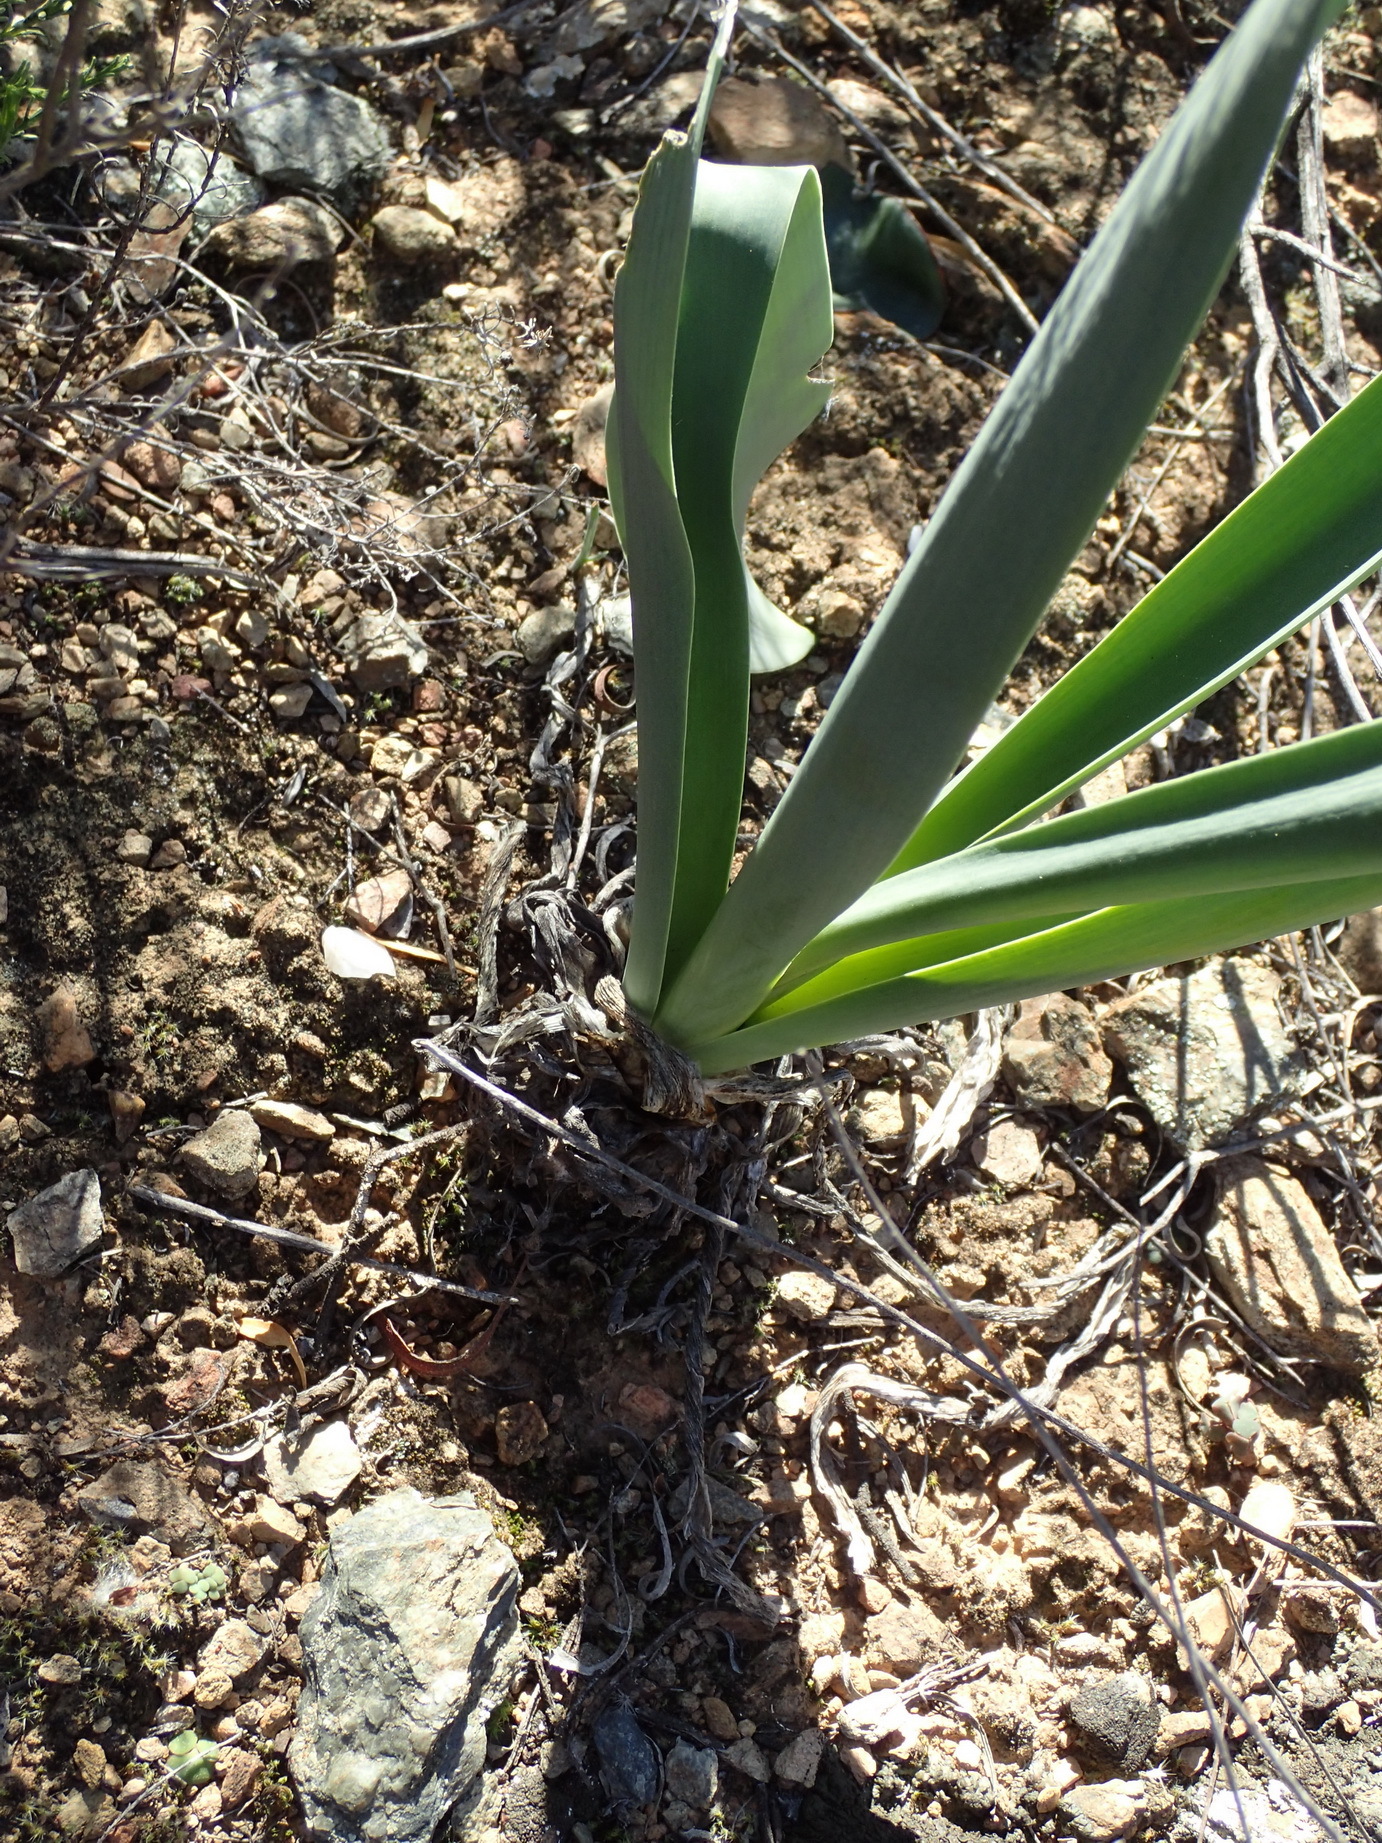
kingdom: Plantae
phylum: Tracheophyta
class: Liliopsida
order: Asparagales
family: Asparagaceae
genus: Drimia
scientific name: Drimia capensis
